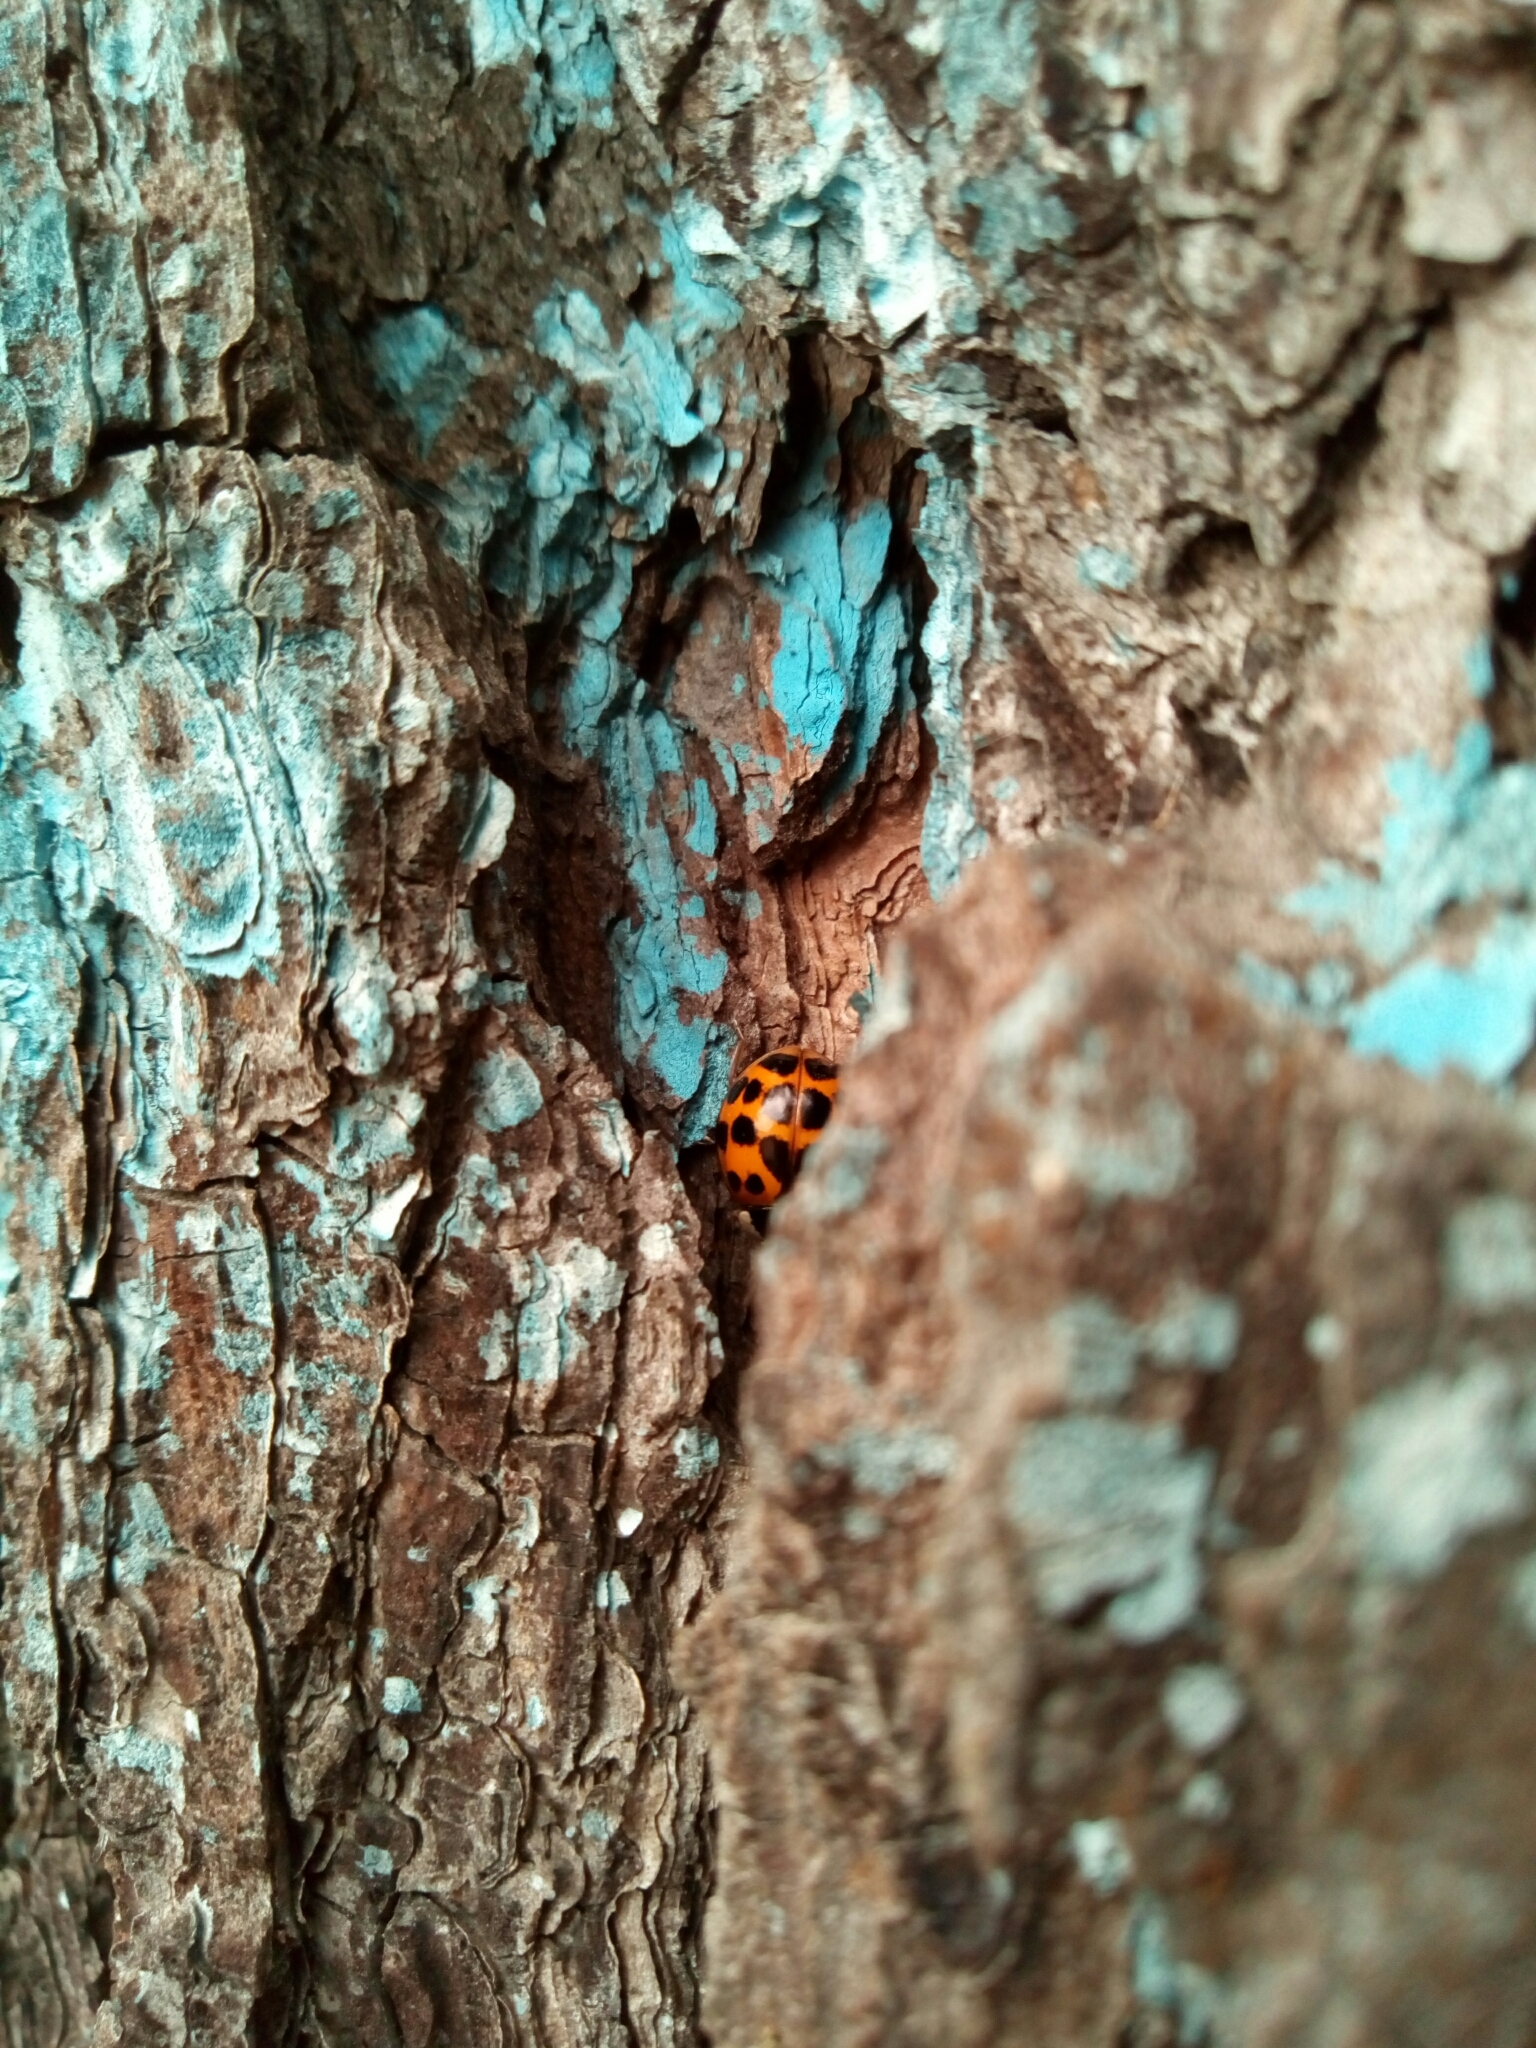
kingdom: Animalia
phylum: Arthropoda
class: Insecta
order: Coleoptera
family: Coccinellidae
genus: Harmonia
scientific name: Harmonia axyridis
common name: Harlequin ladybird
